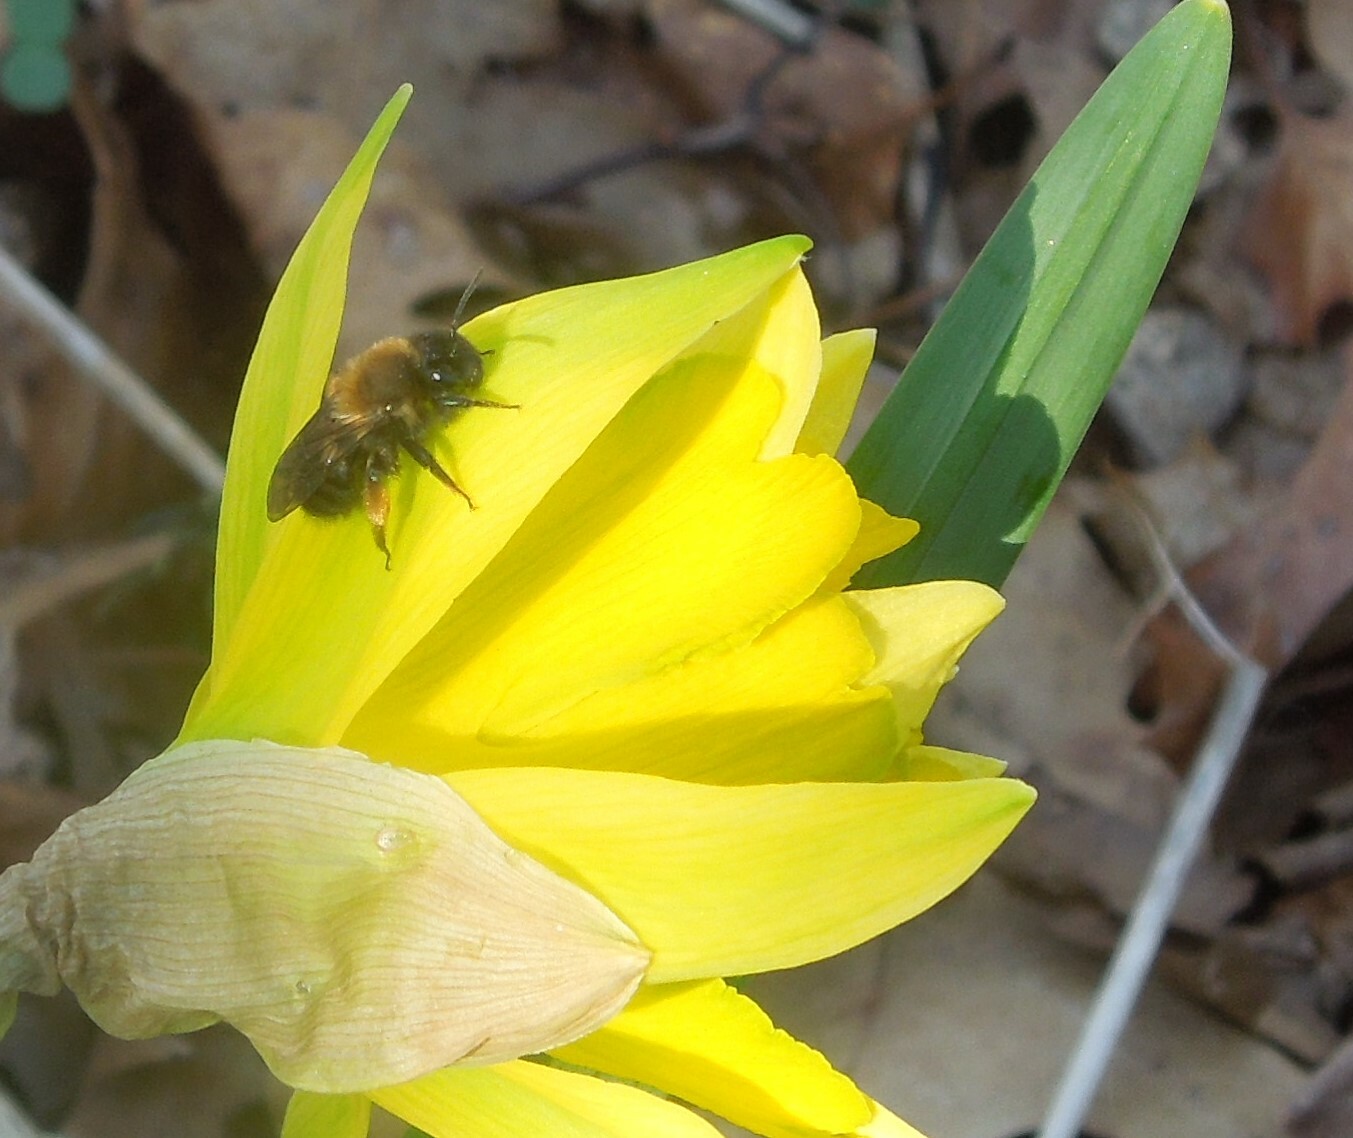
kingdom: Animalia
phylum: Arthropoda
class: Insecta
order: Hymenoptera
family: Andrenidae
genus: Andrena
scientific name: Andrena clarkella
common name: Clarke's mining bee
